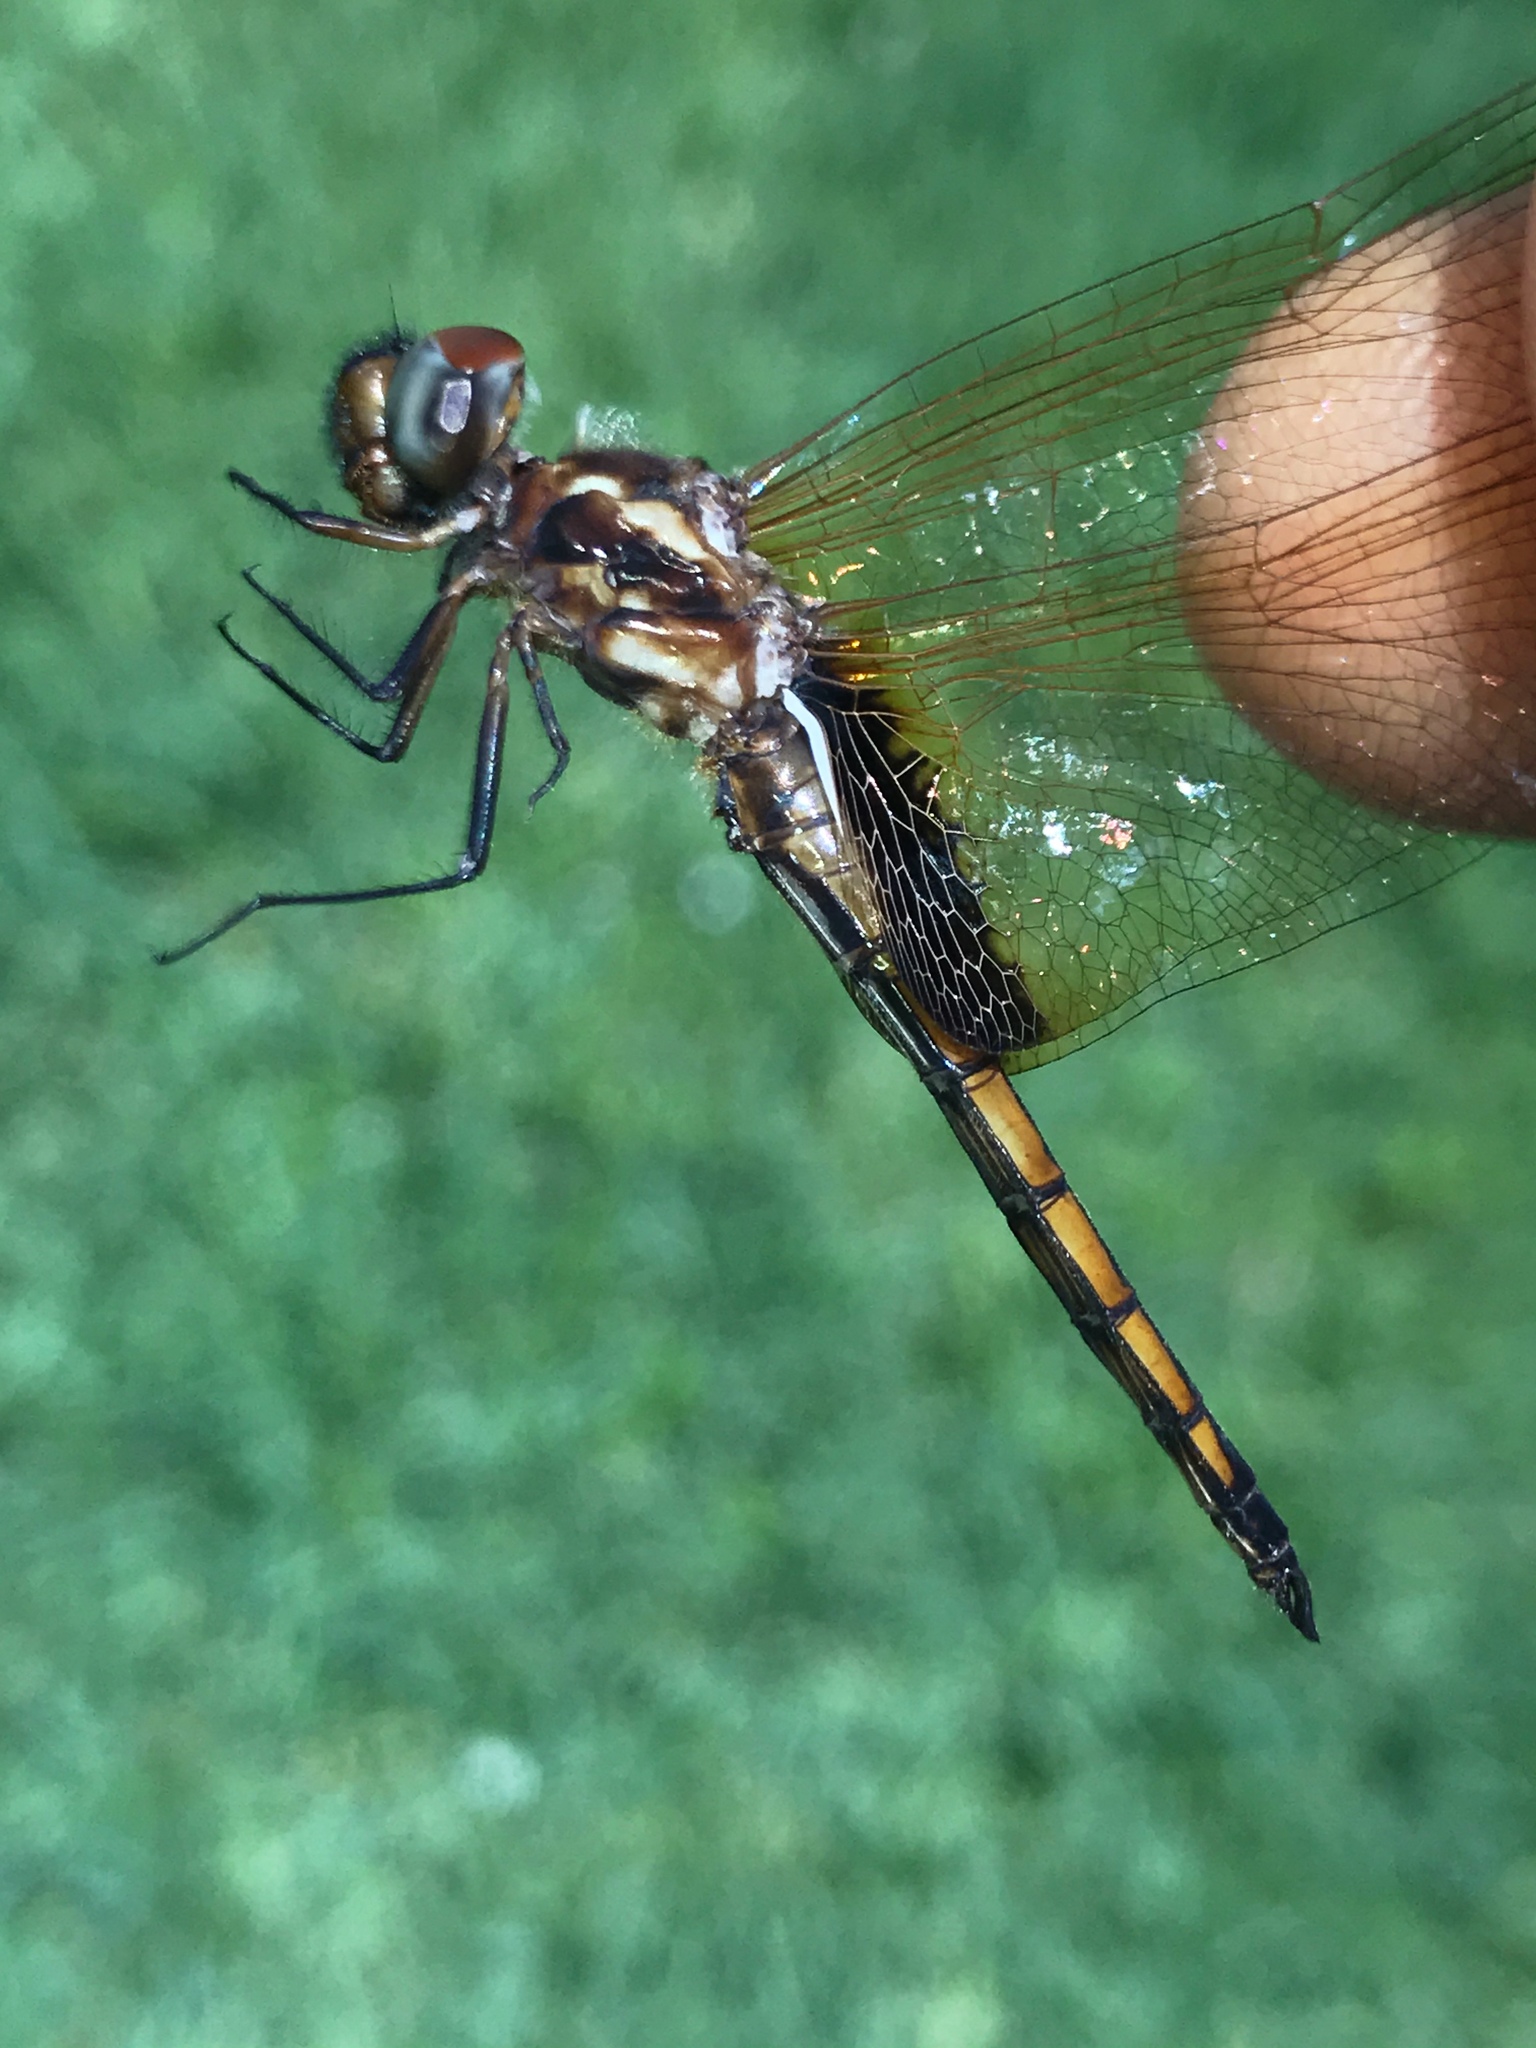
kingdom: Animalia
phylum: Arthropoda
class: Insecta
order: Odonata
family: Libellulidae
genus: Miathyria
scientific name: Miathyria marcella
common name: Hyacinth glider
